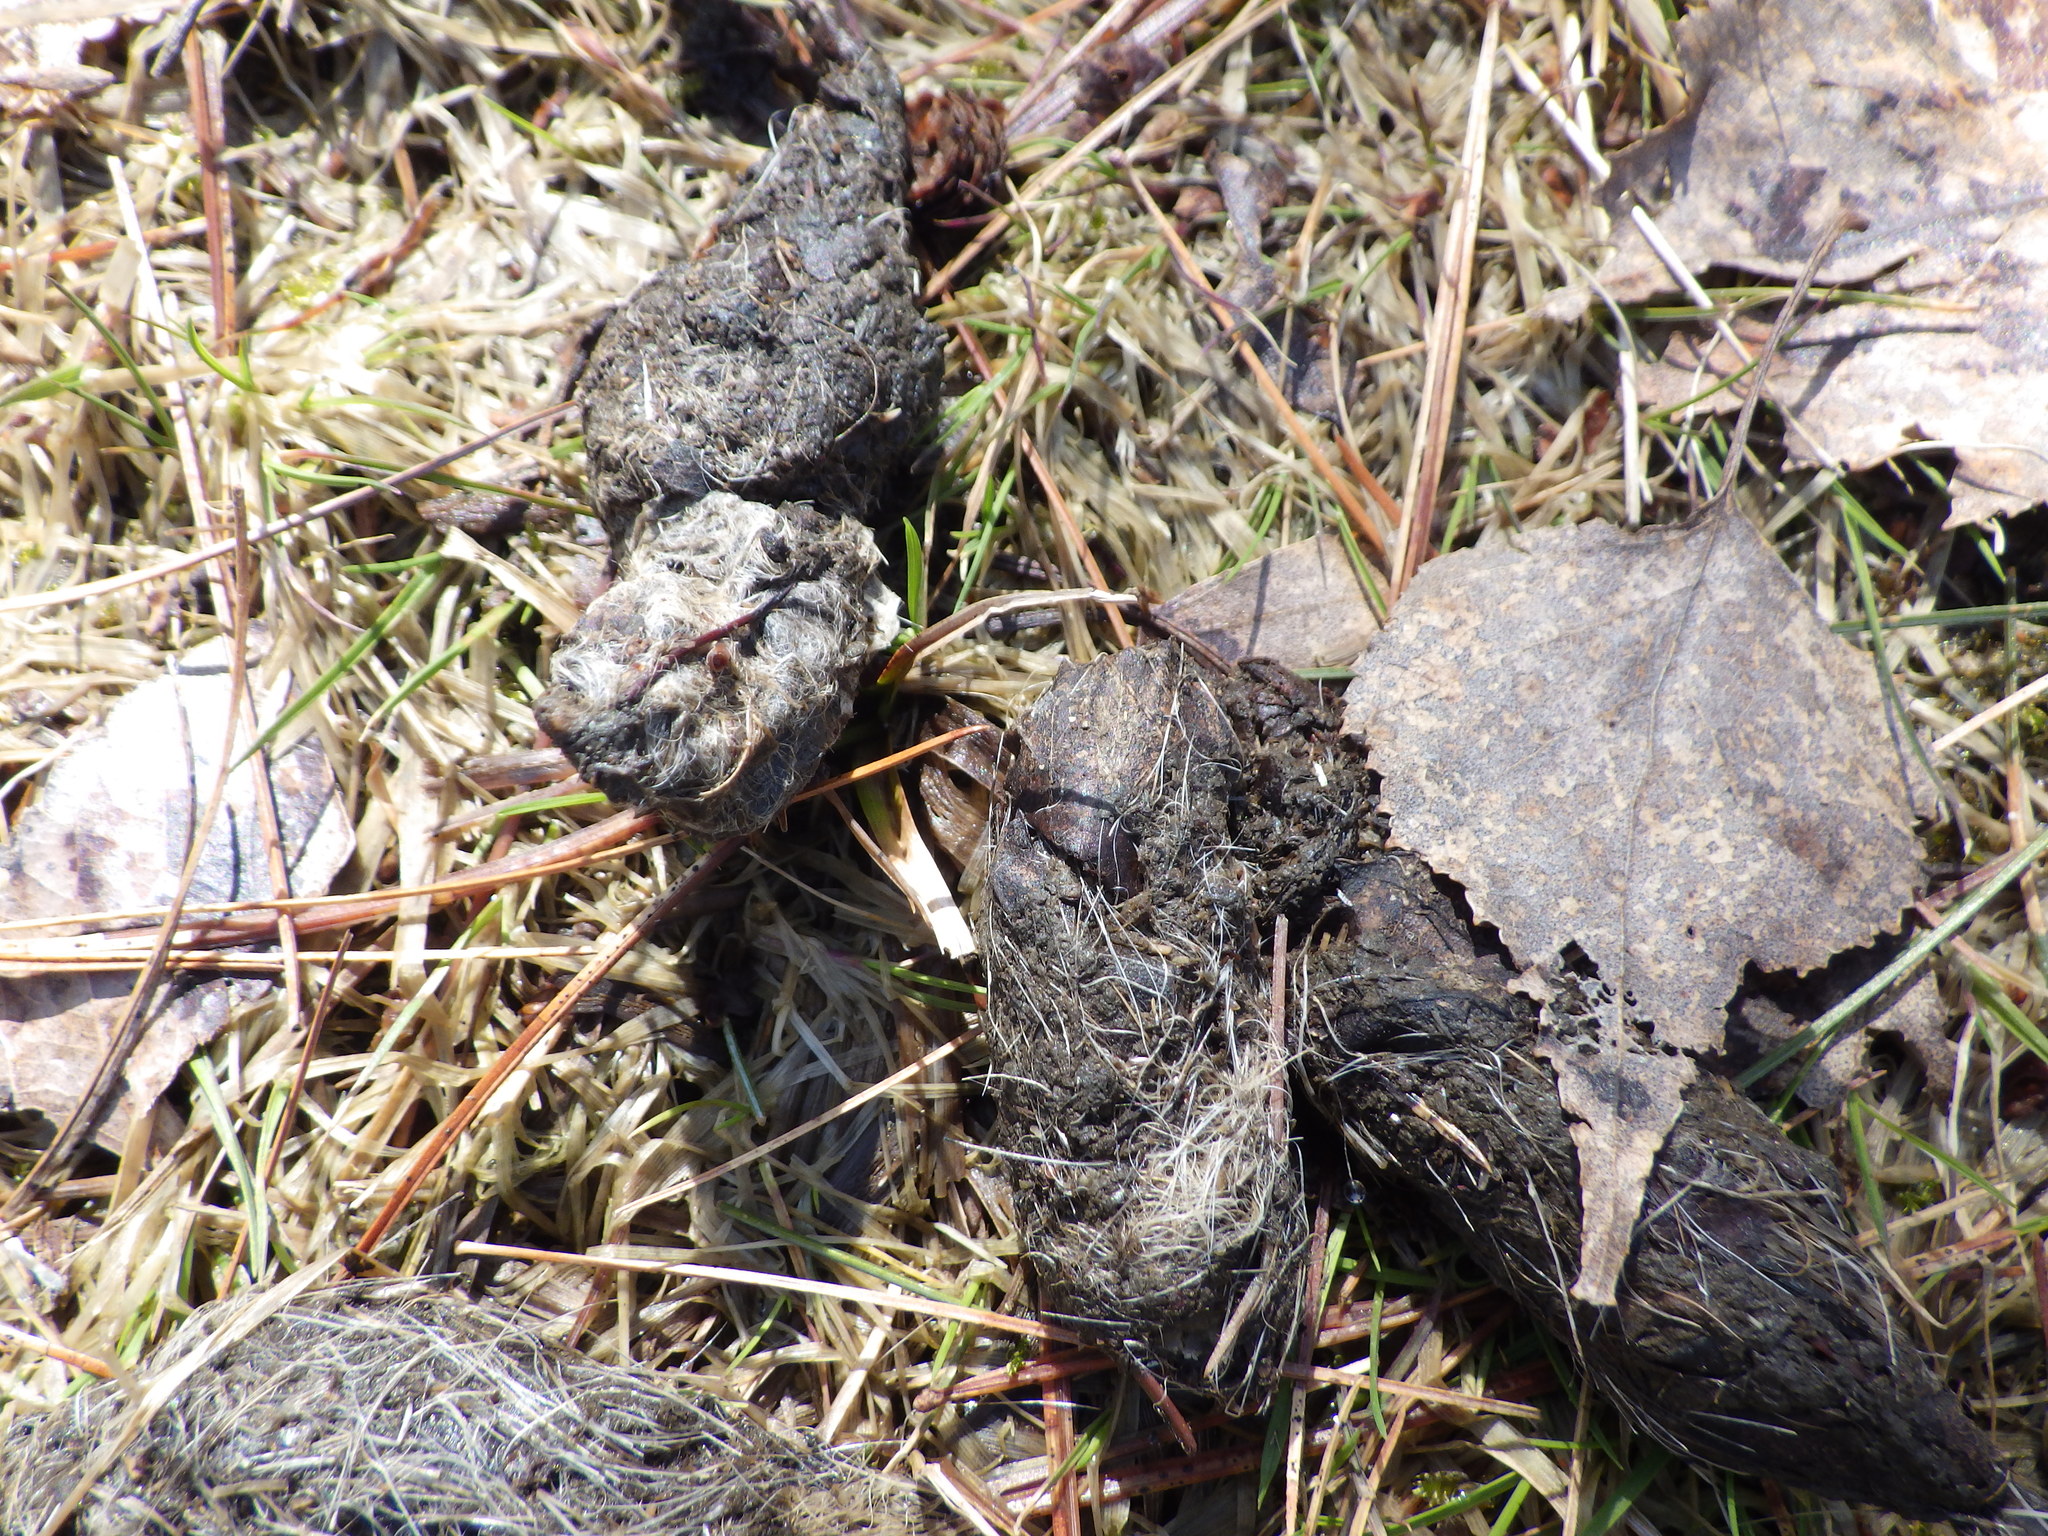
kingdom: Animalia
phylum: Chordata
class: Mammalia
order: Carnivora
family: Canidae
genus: Canis
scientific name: Canis latrans
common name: Coyote
